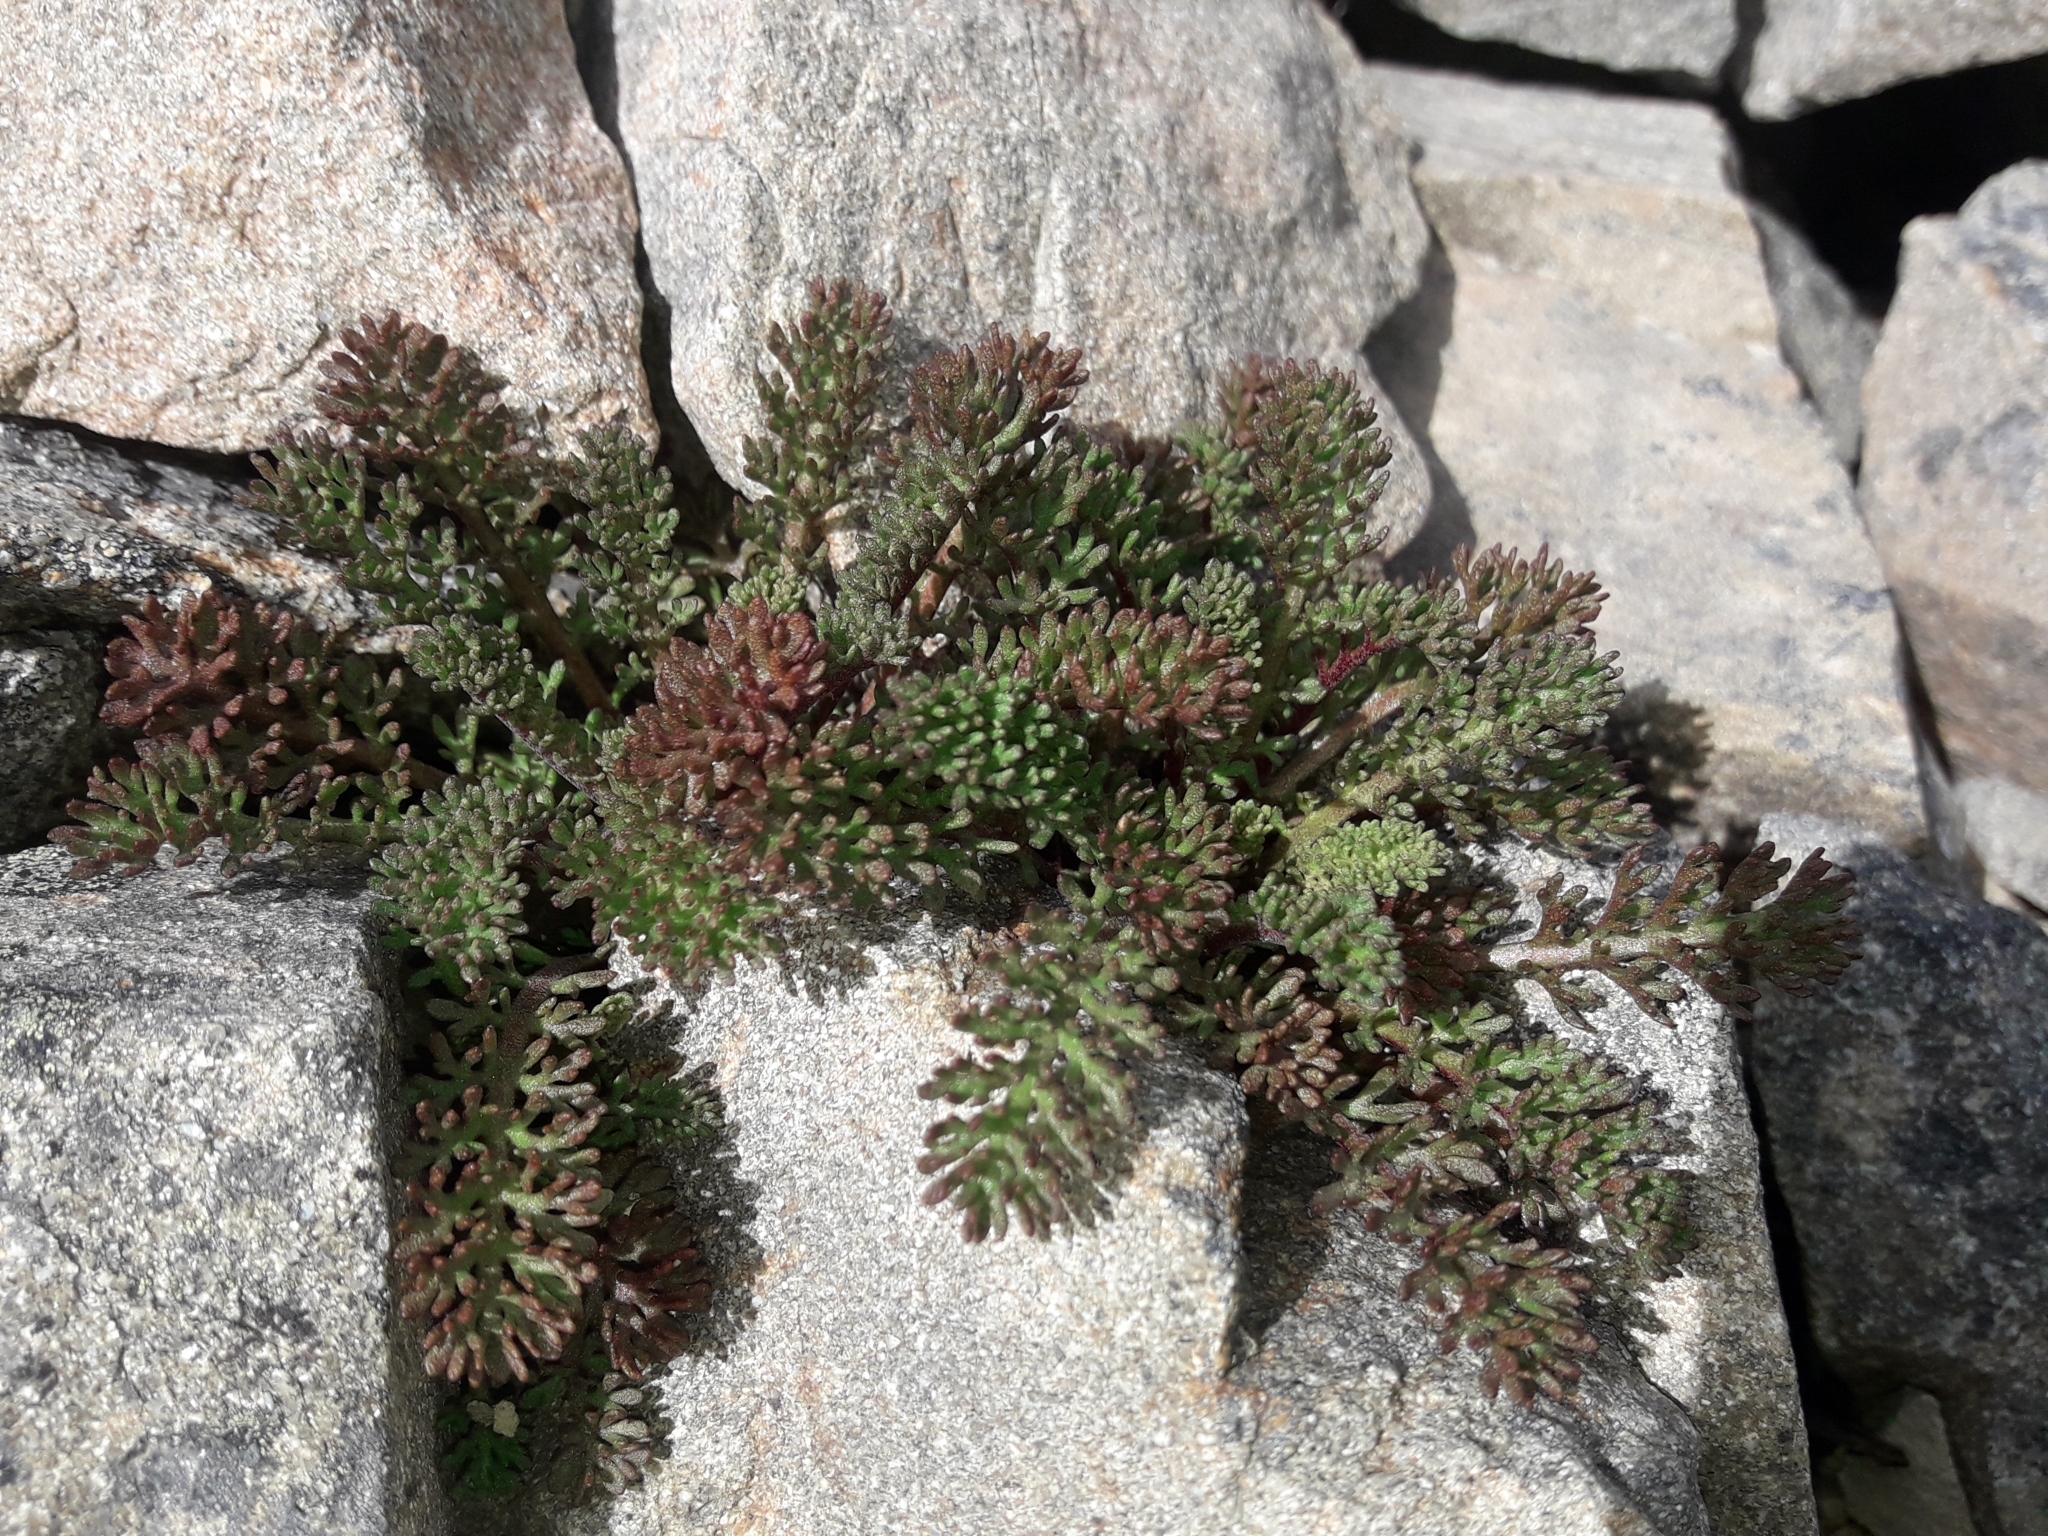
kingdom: Plantae
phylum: Tracheophyta
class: Magnoliopsida
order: Asterales
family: Asteraceae
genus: Leptinella
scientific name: Leptinella atrata
